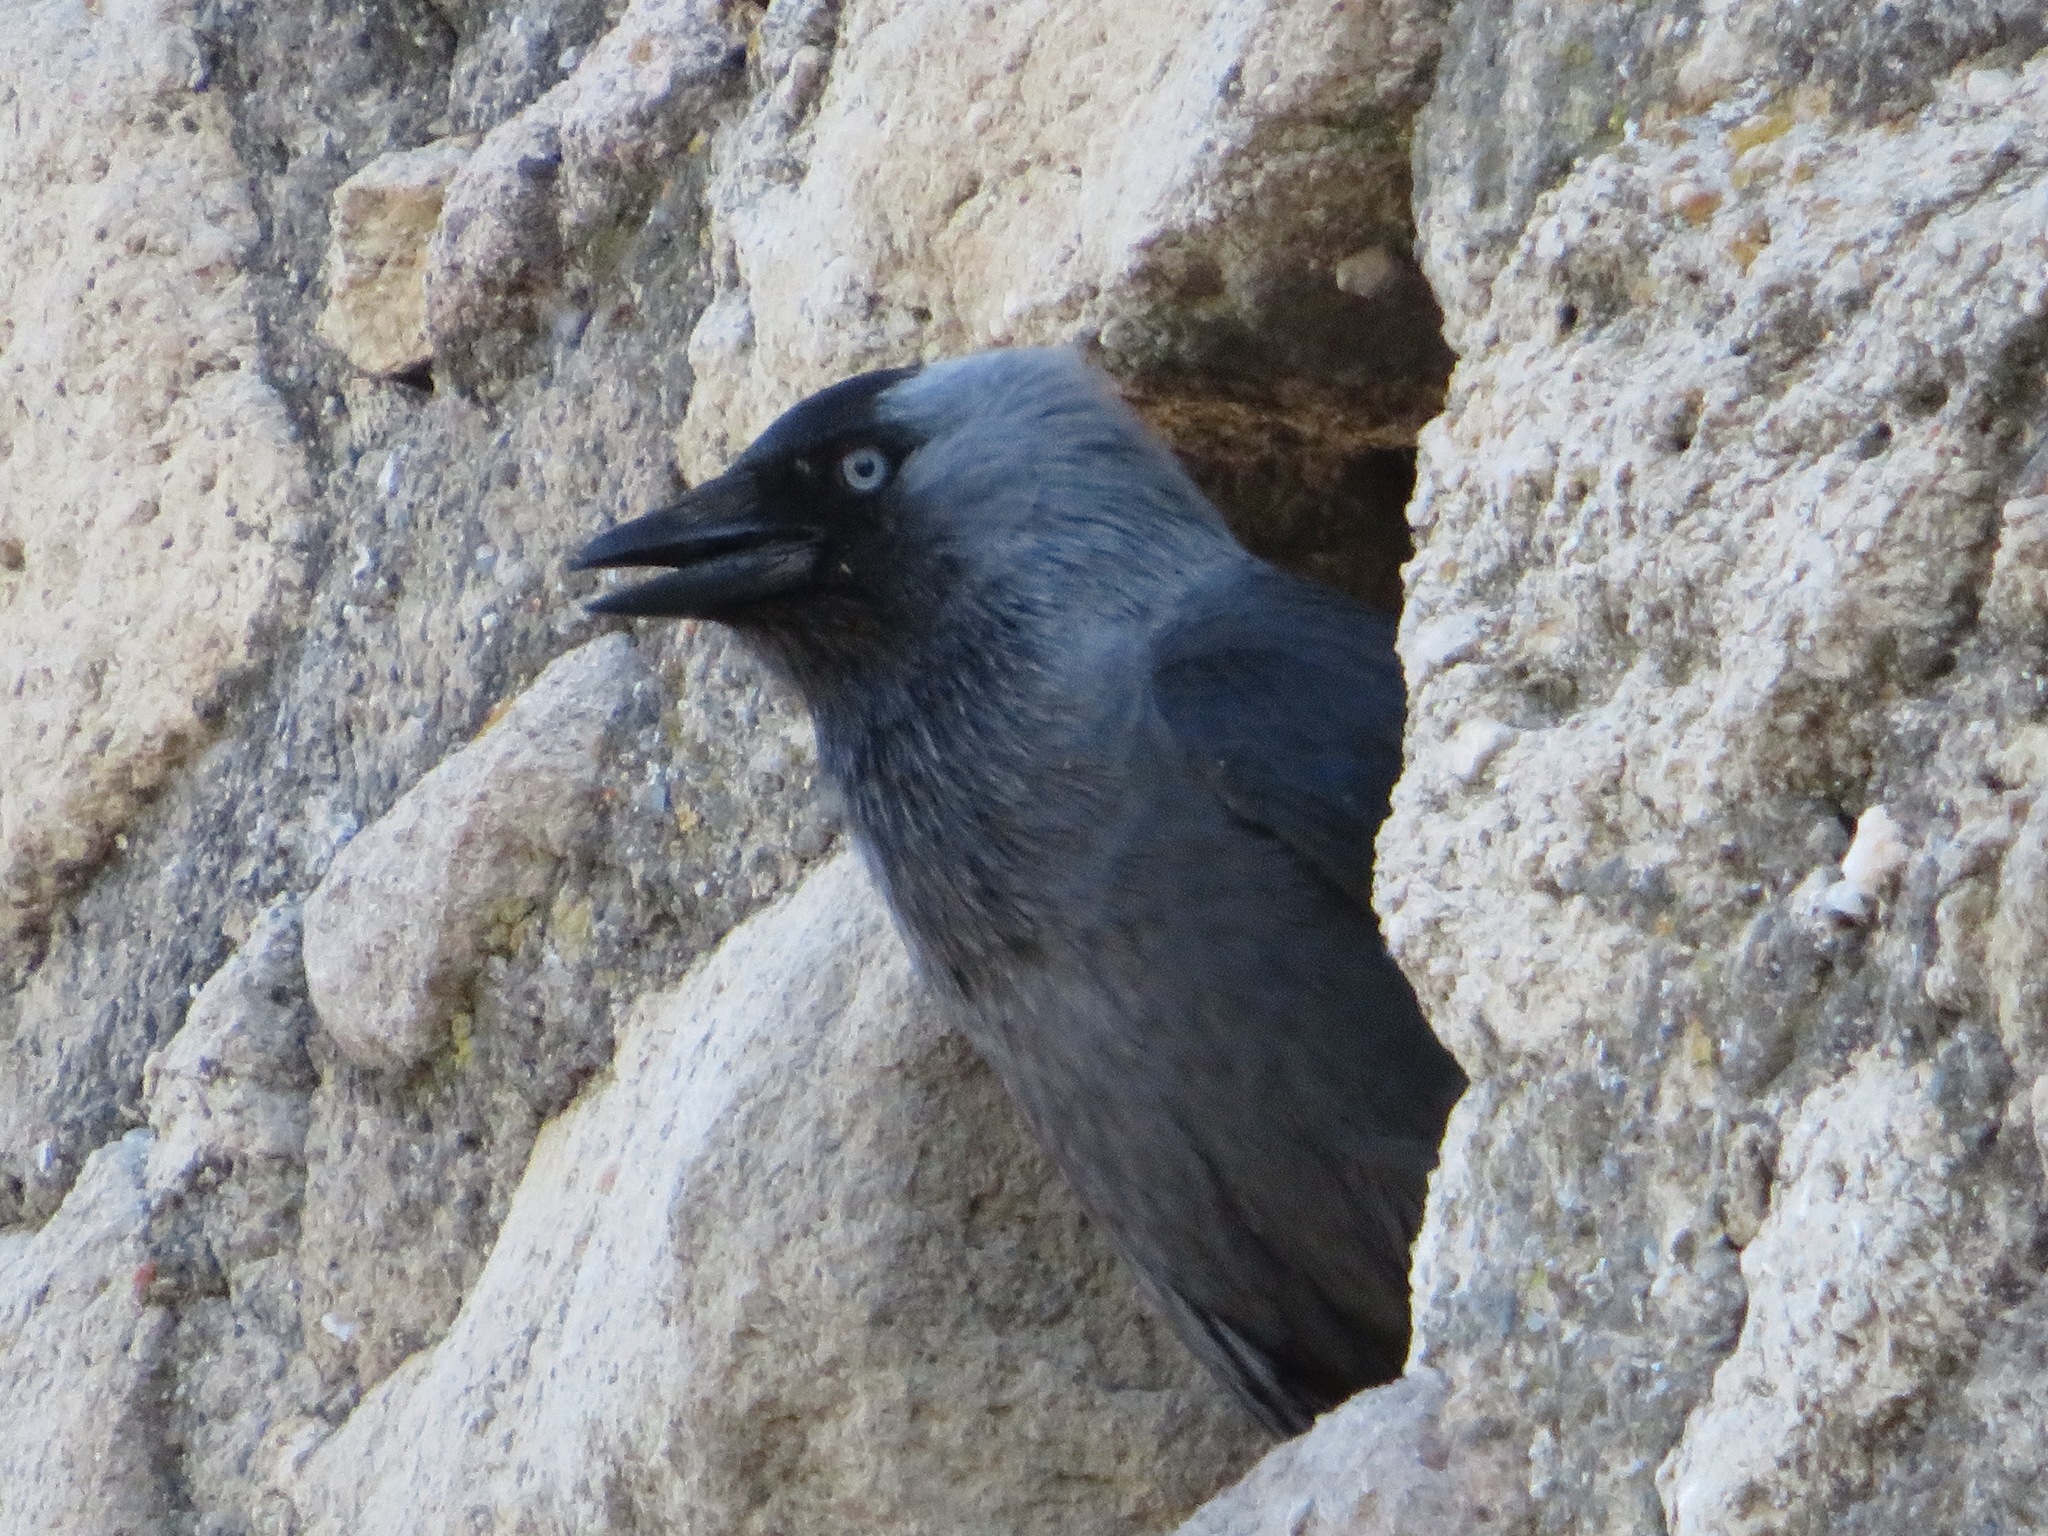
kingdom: Animalia
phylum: Chordata
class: Aves
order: Passeriformes
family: Corvidae
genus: Coloeus
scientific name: Coloeus monedula
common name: Western jackdaw
